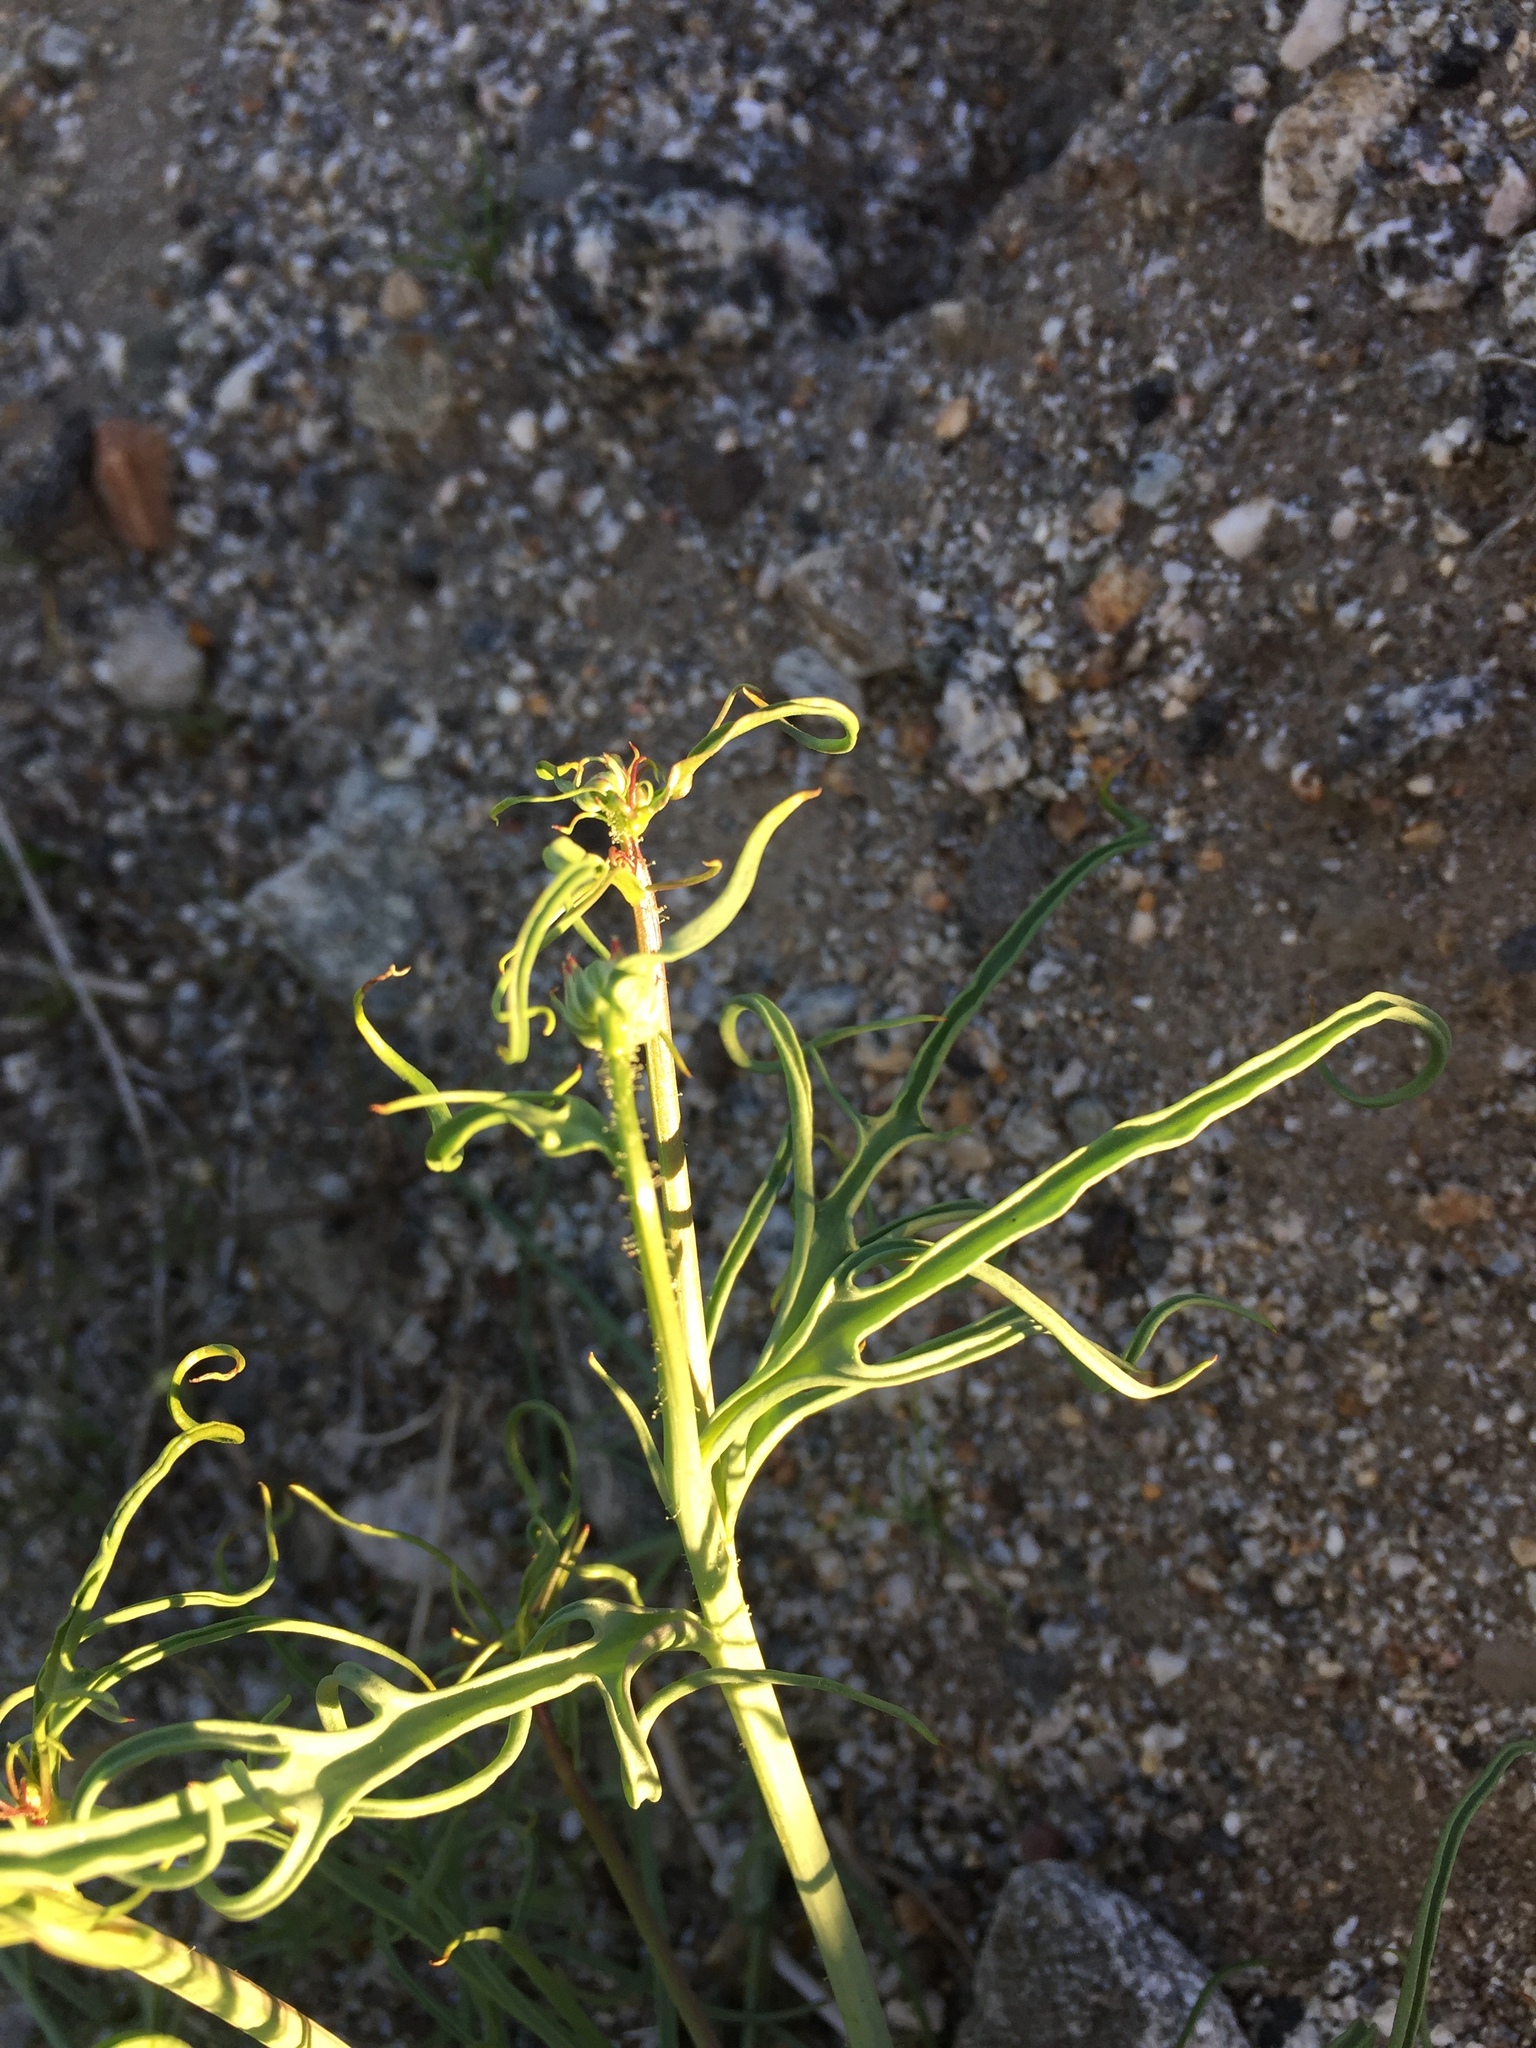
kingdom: Plantae
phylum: Tracheophyta
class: Magnoliopsida
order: Asterales
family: Asteraceae
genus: Calycoseris
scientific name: Calycoseris wrightii
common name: White tackstem
